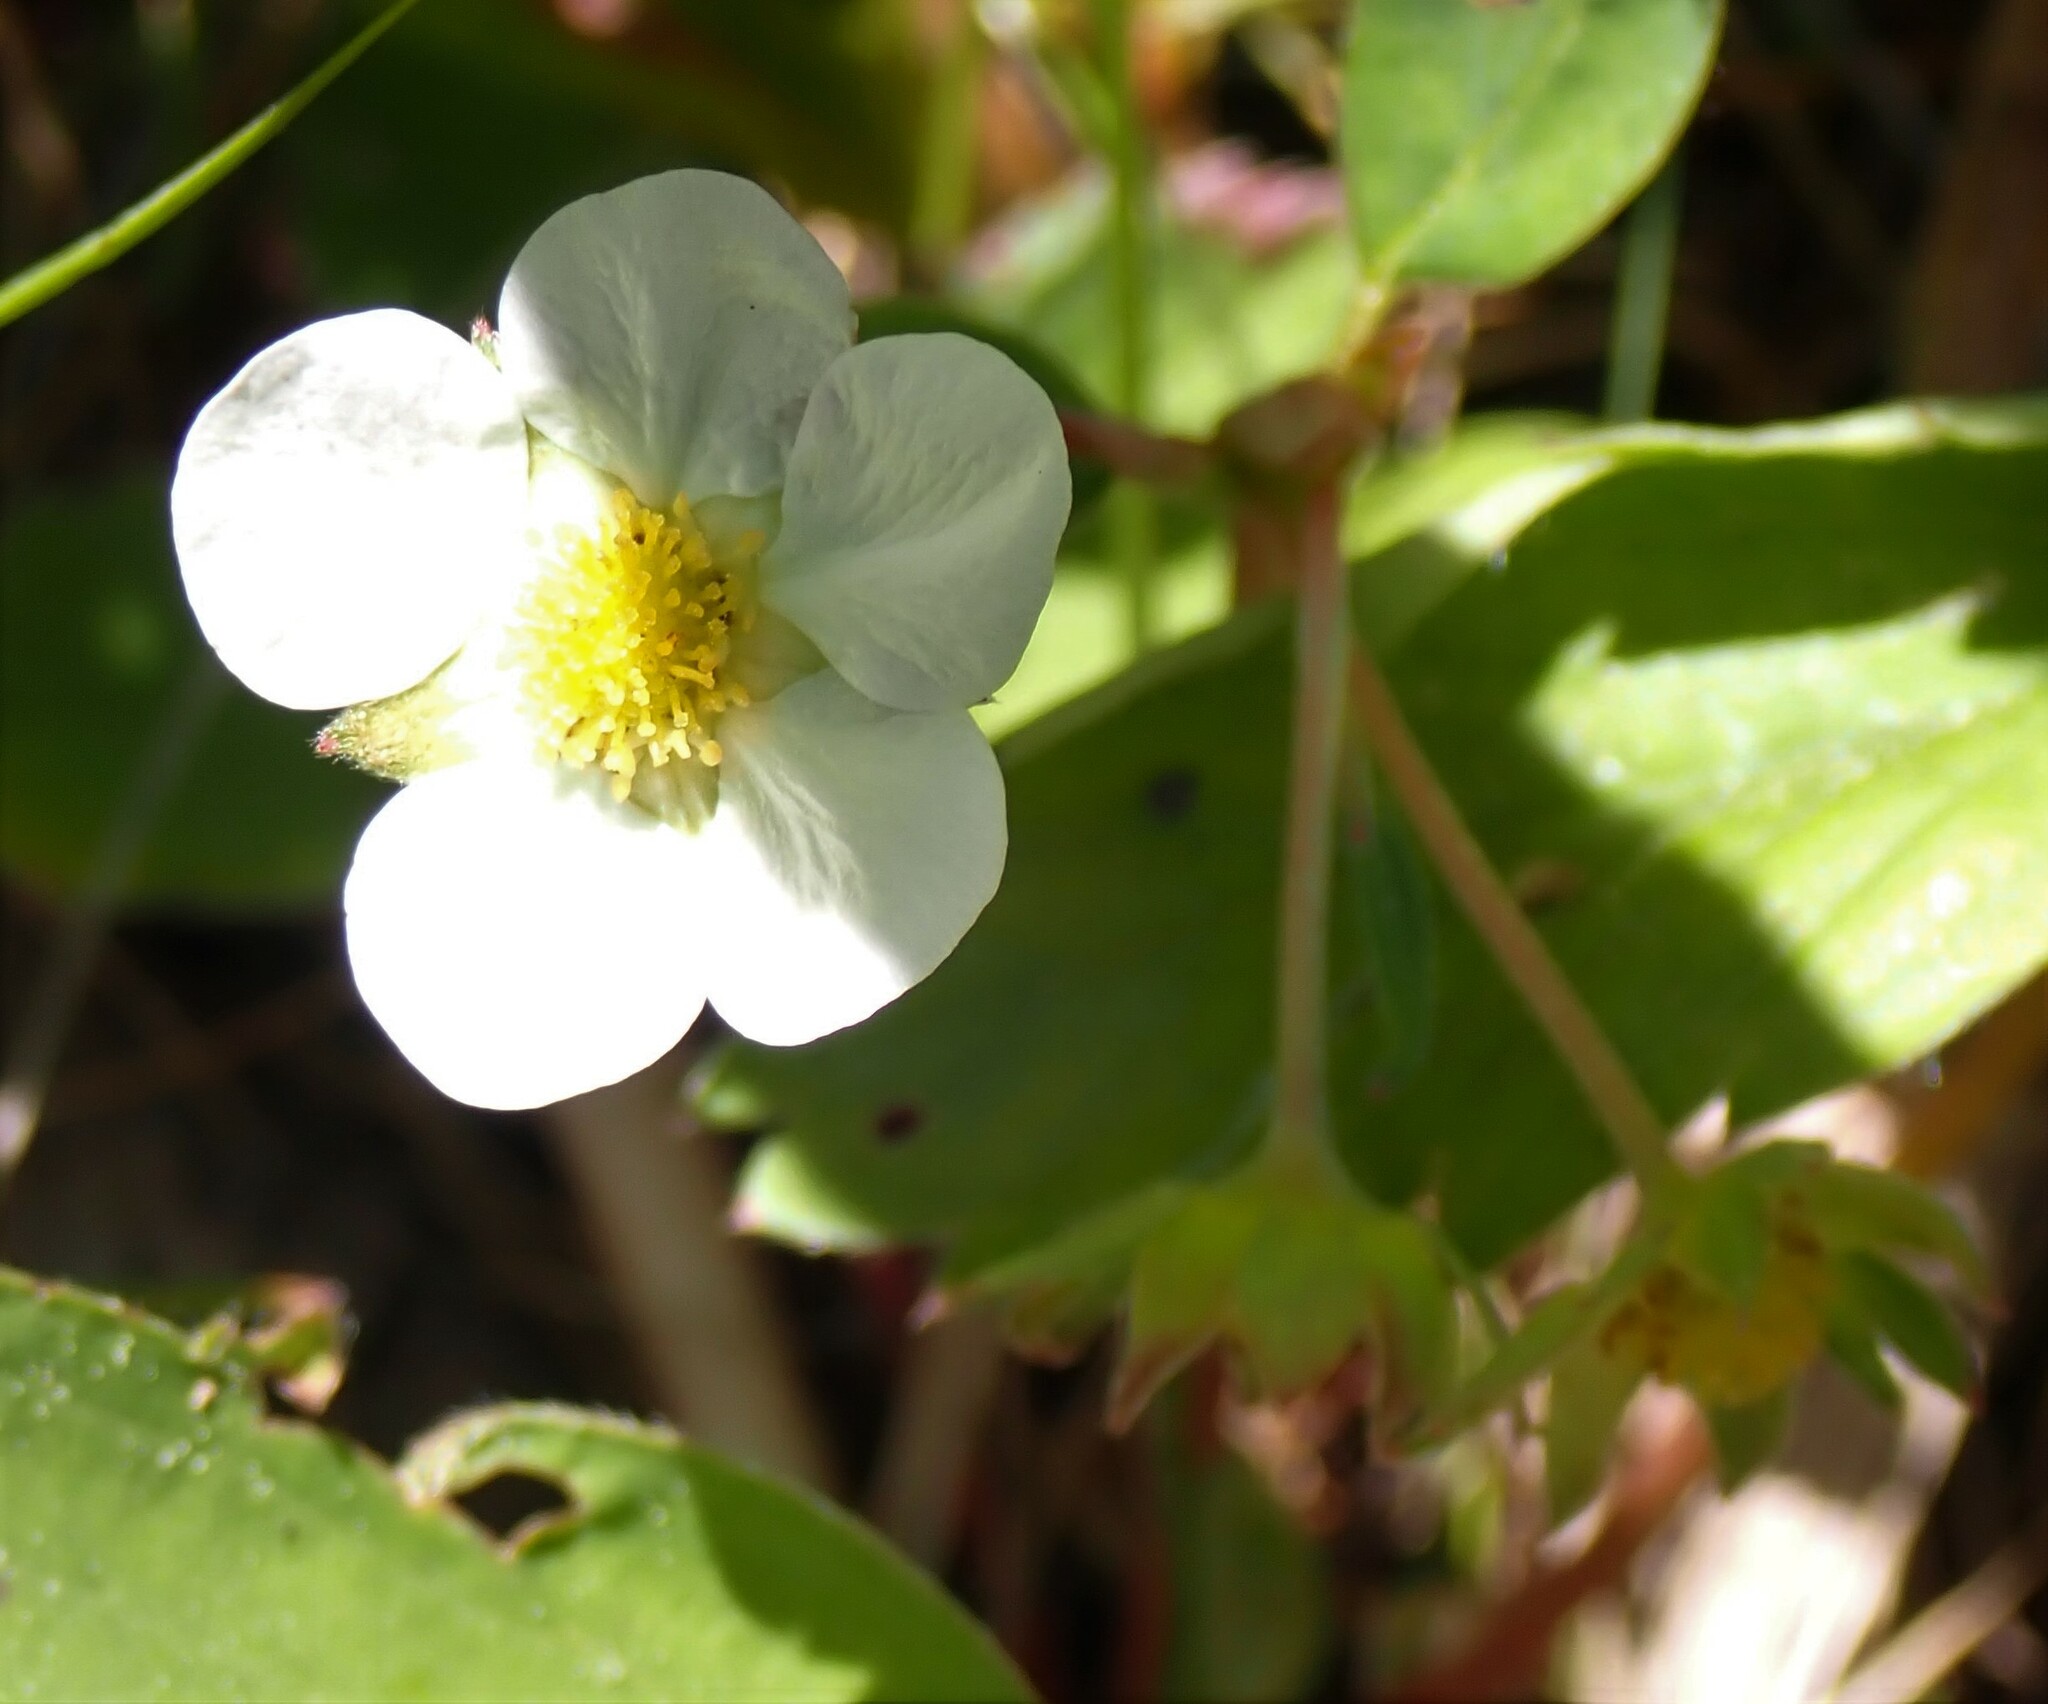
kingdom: Plantae
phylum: Tracheophyta
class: Magnoliopsida
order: Rosales
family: Rosaceae
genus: Fragaria
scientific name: Fragaria virginiana
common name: Thickleaved wild strawberry
